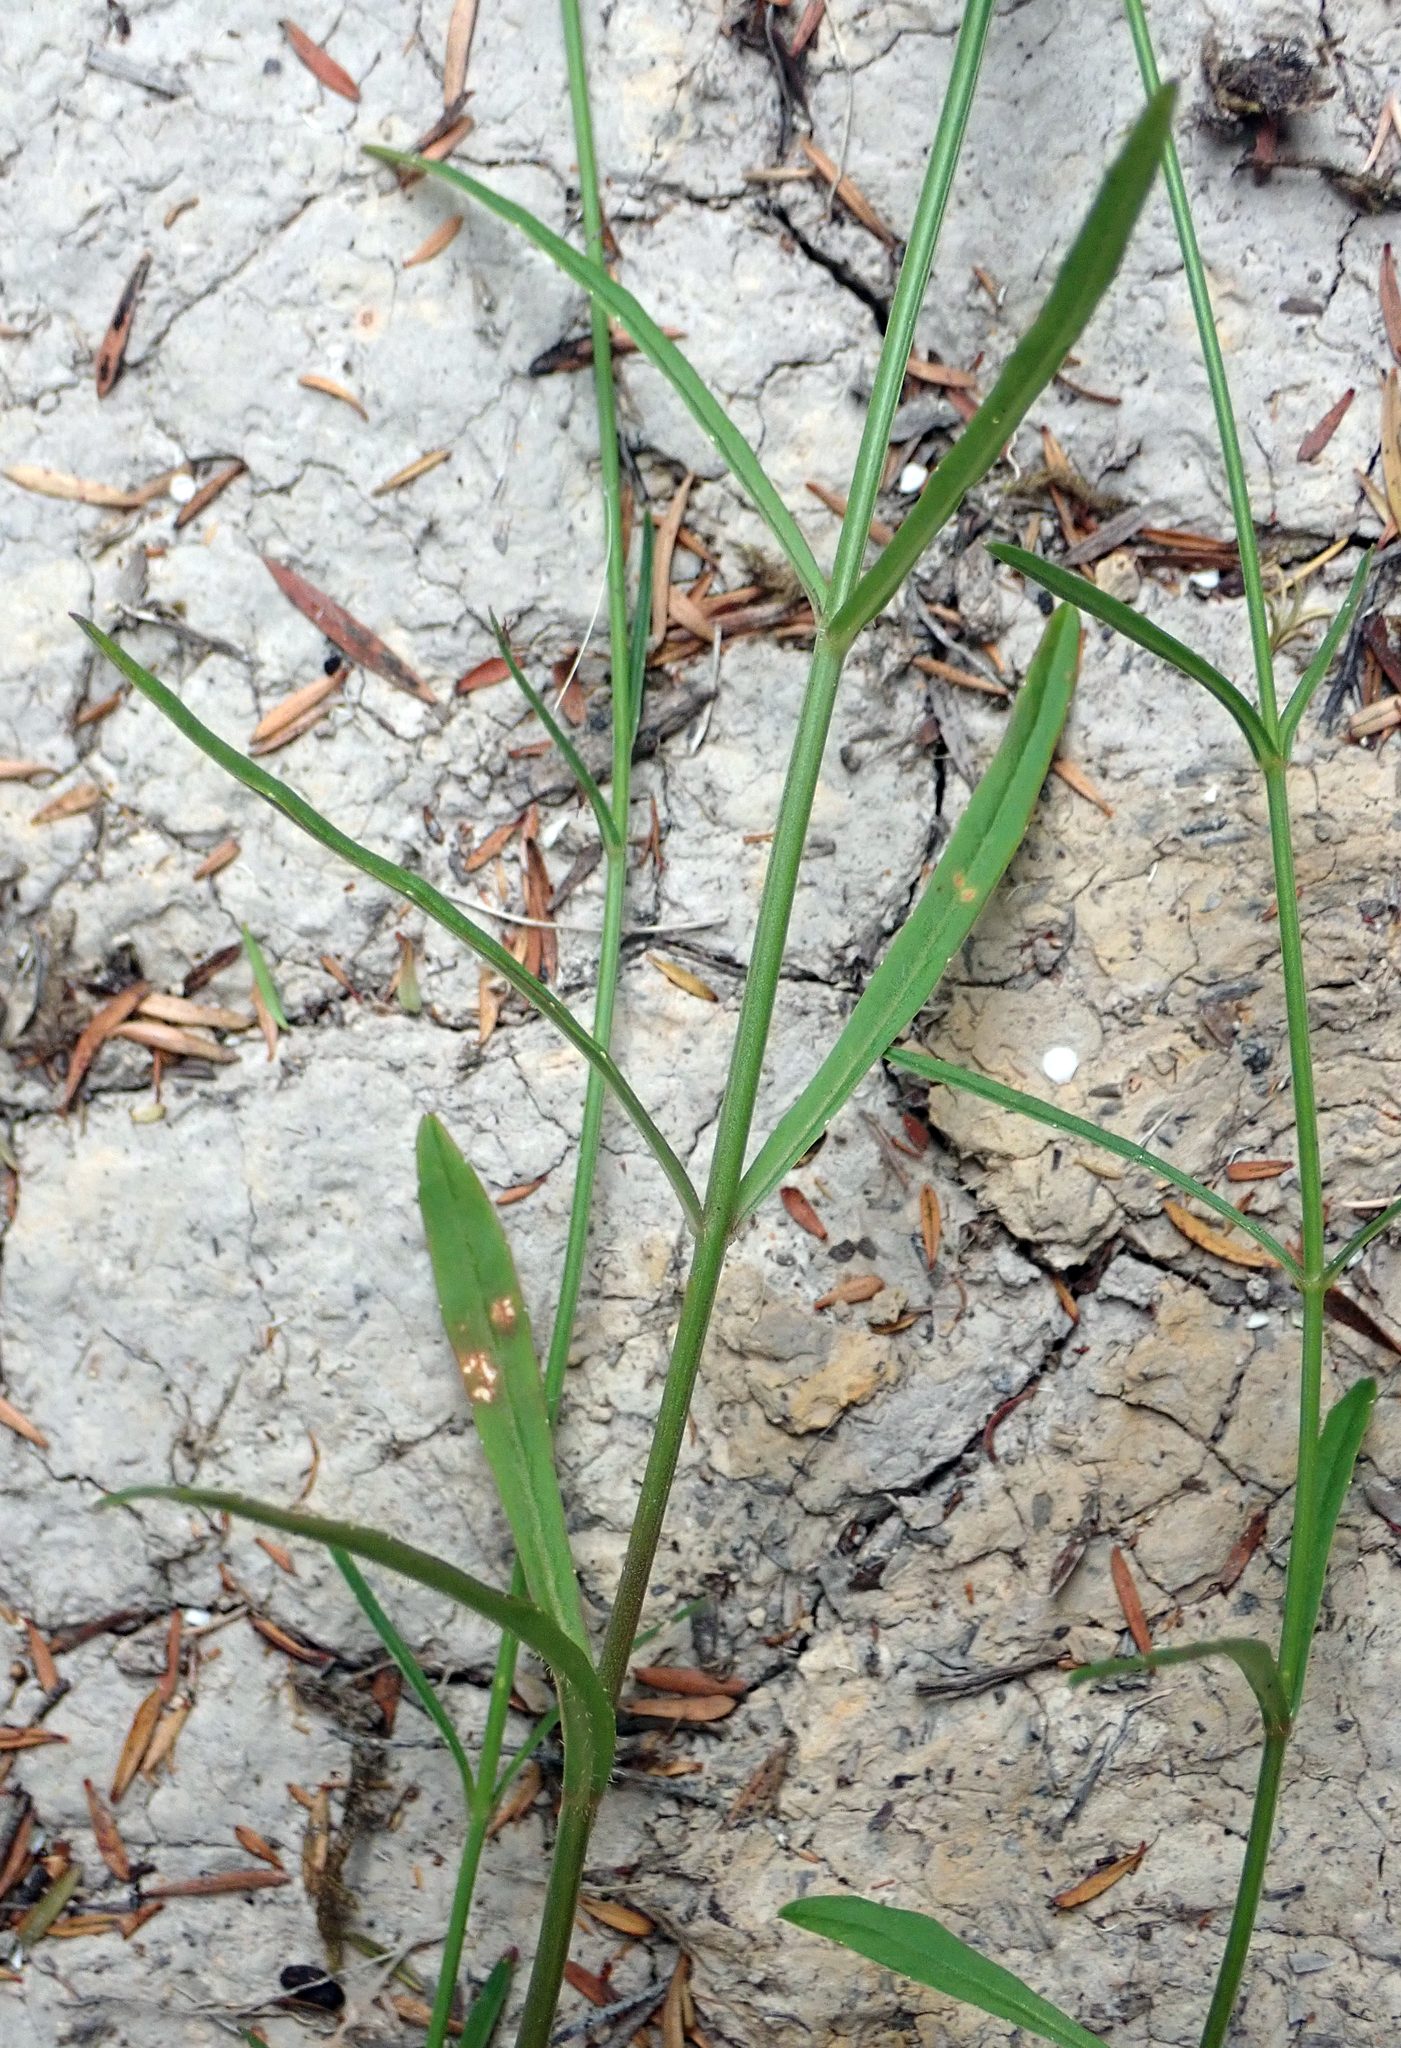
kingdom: Plantae
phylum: Tracheophyta
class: Magnoliopsida
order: Asterales
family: Campanulaceae
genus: Wahlenbergia
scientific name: Wahlenbergia violacea
